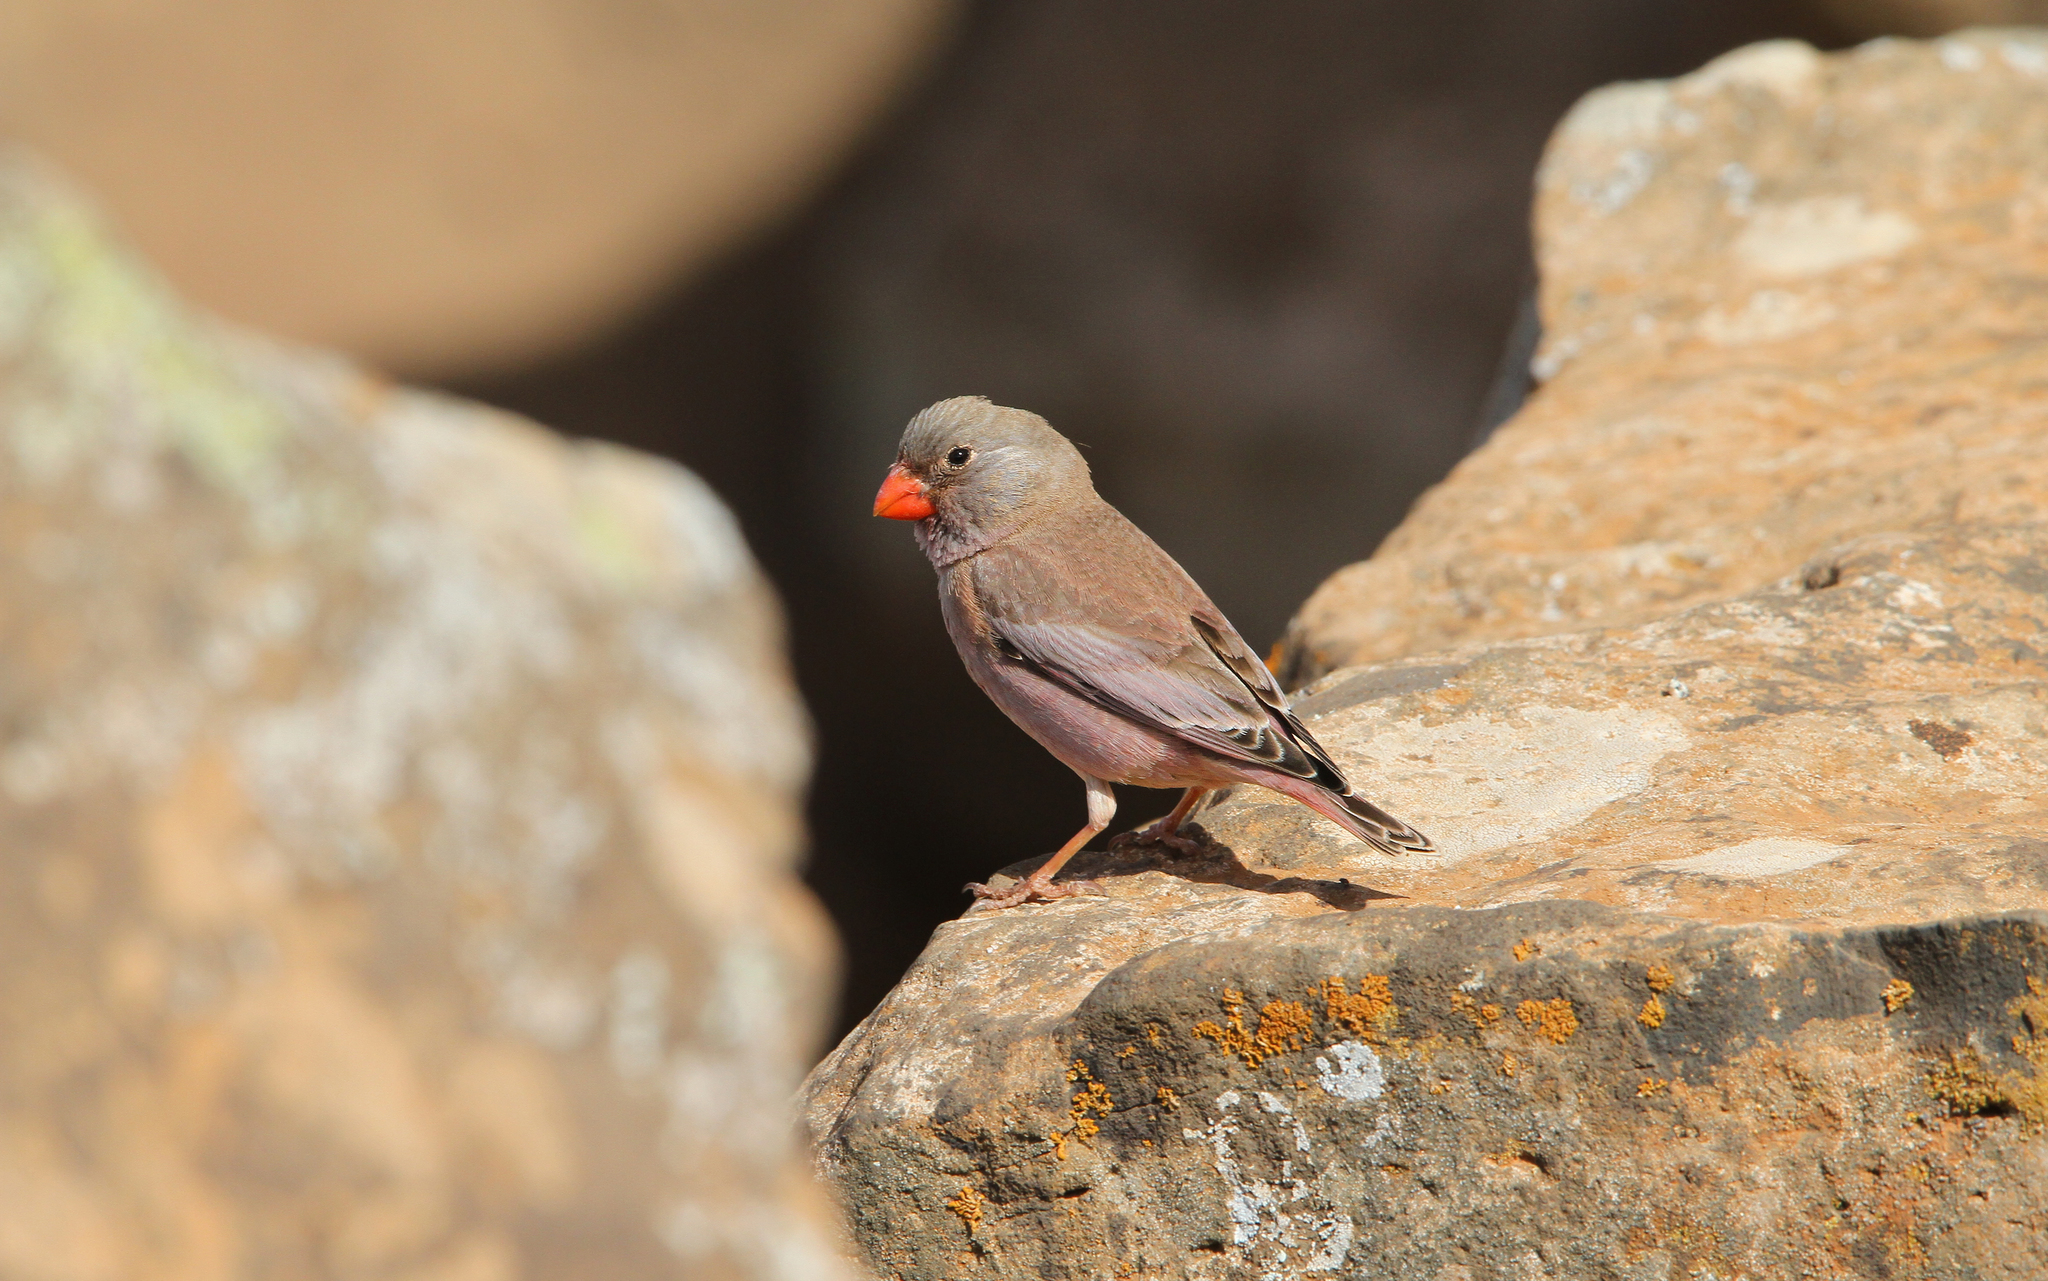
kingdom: Animalia
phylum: Chordata
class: Aves
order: Passeriformes
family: Fringillidae
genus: Bucanetes
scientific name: Bucanetes githagineus
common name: Trumpeter finch
